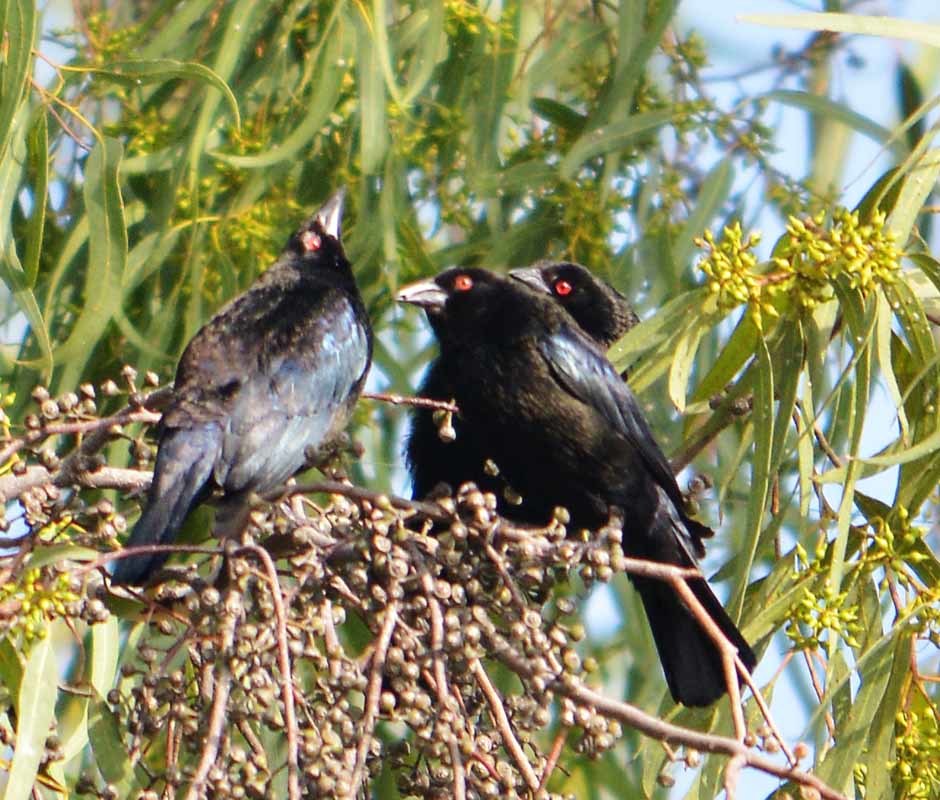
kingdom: Animalia
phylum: Chordata
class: Aves
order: Passeriformes
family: Icteridae
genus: Molothrus
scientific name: Molothrus aeneus
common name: Bronzed cowbird
